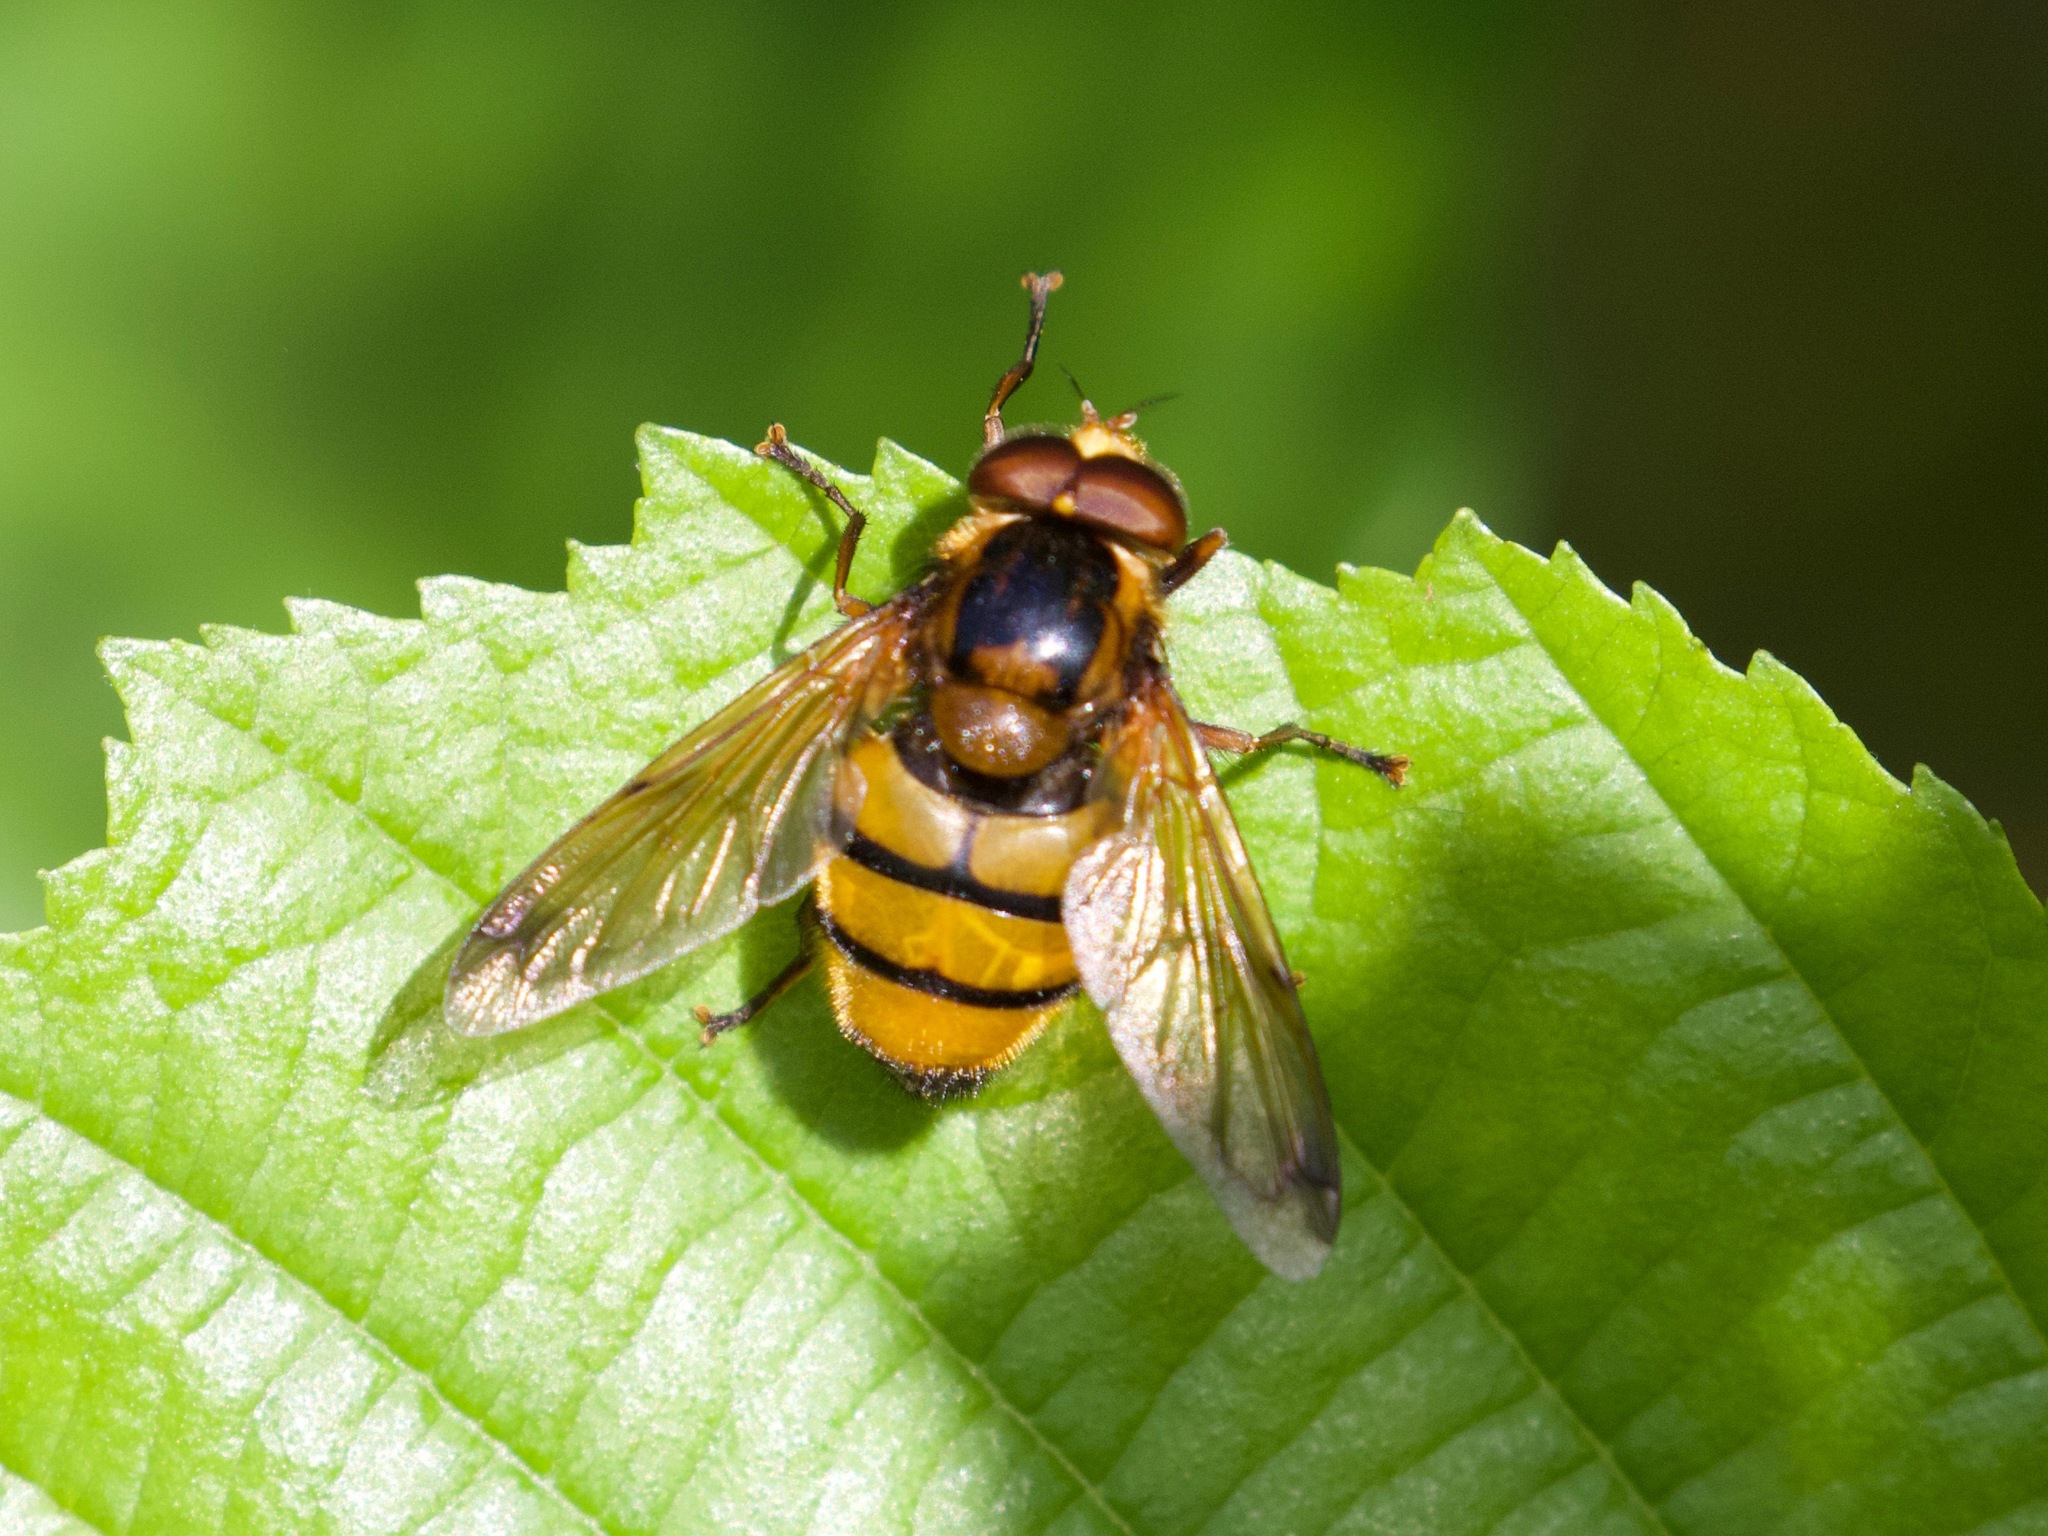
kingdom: Animalia
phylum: Arthropoda
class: Insecta
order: Diptera
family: Syrphidae
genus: Volucella
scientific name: Volucella inanis
